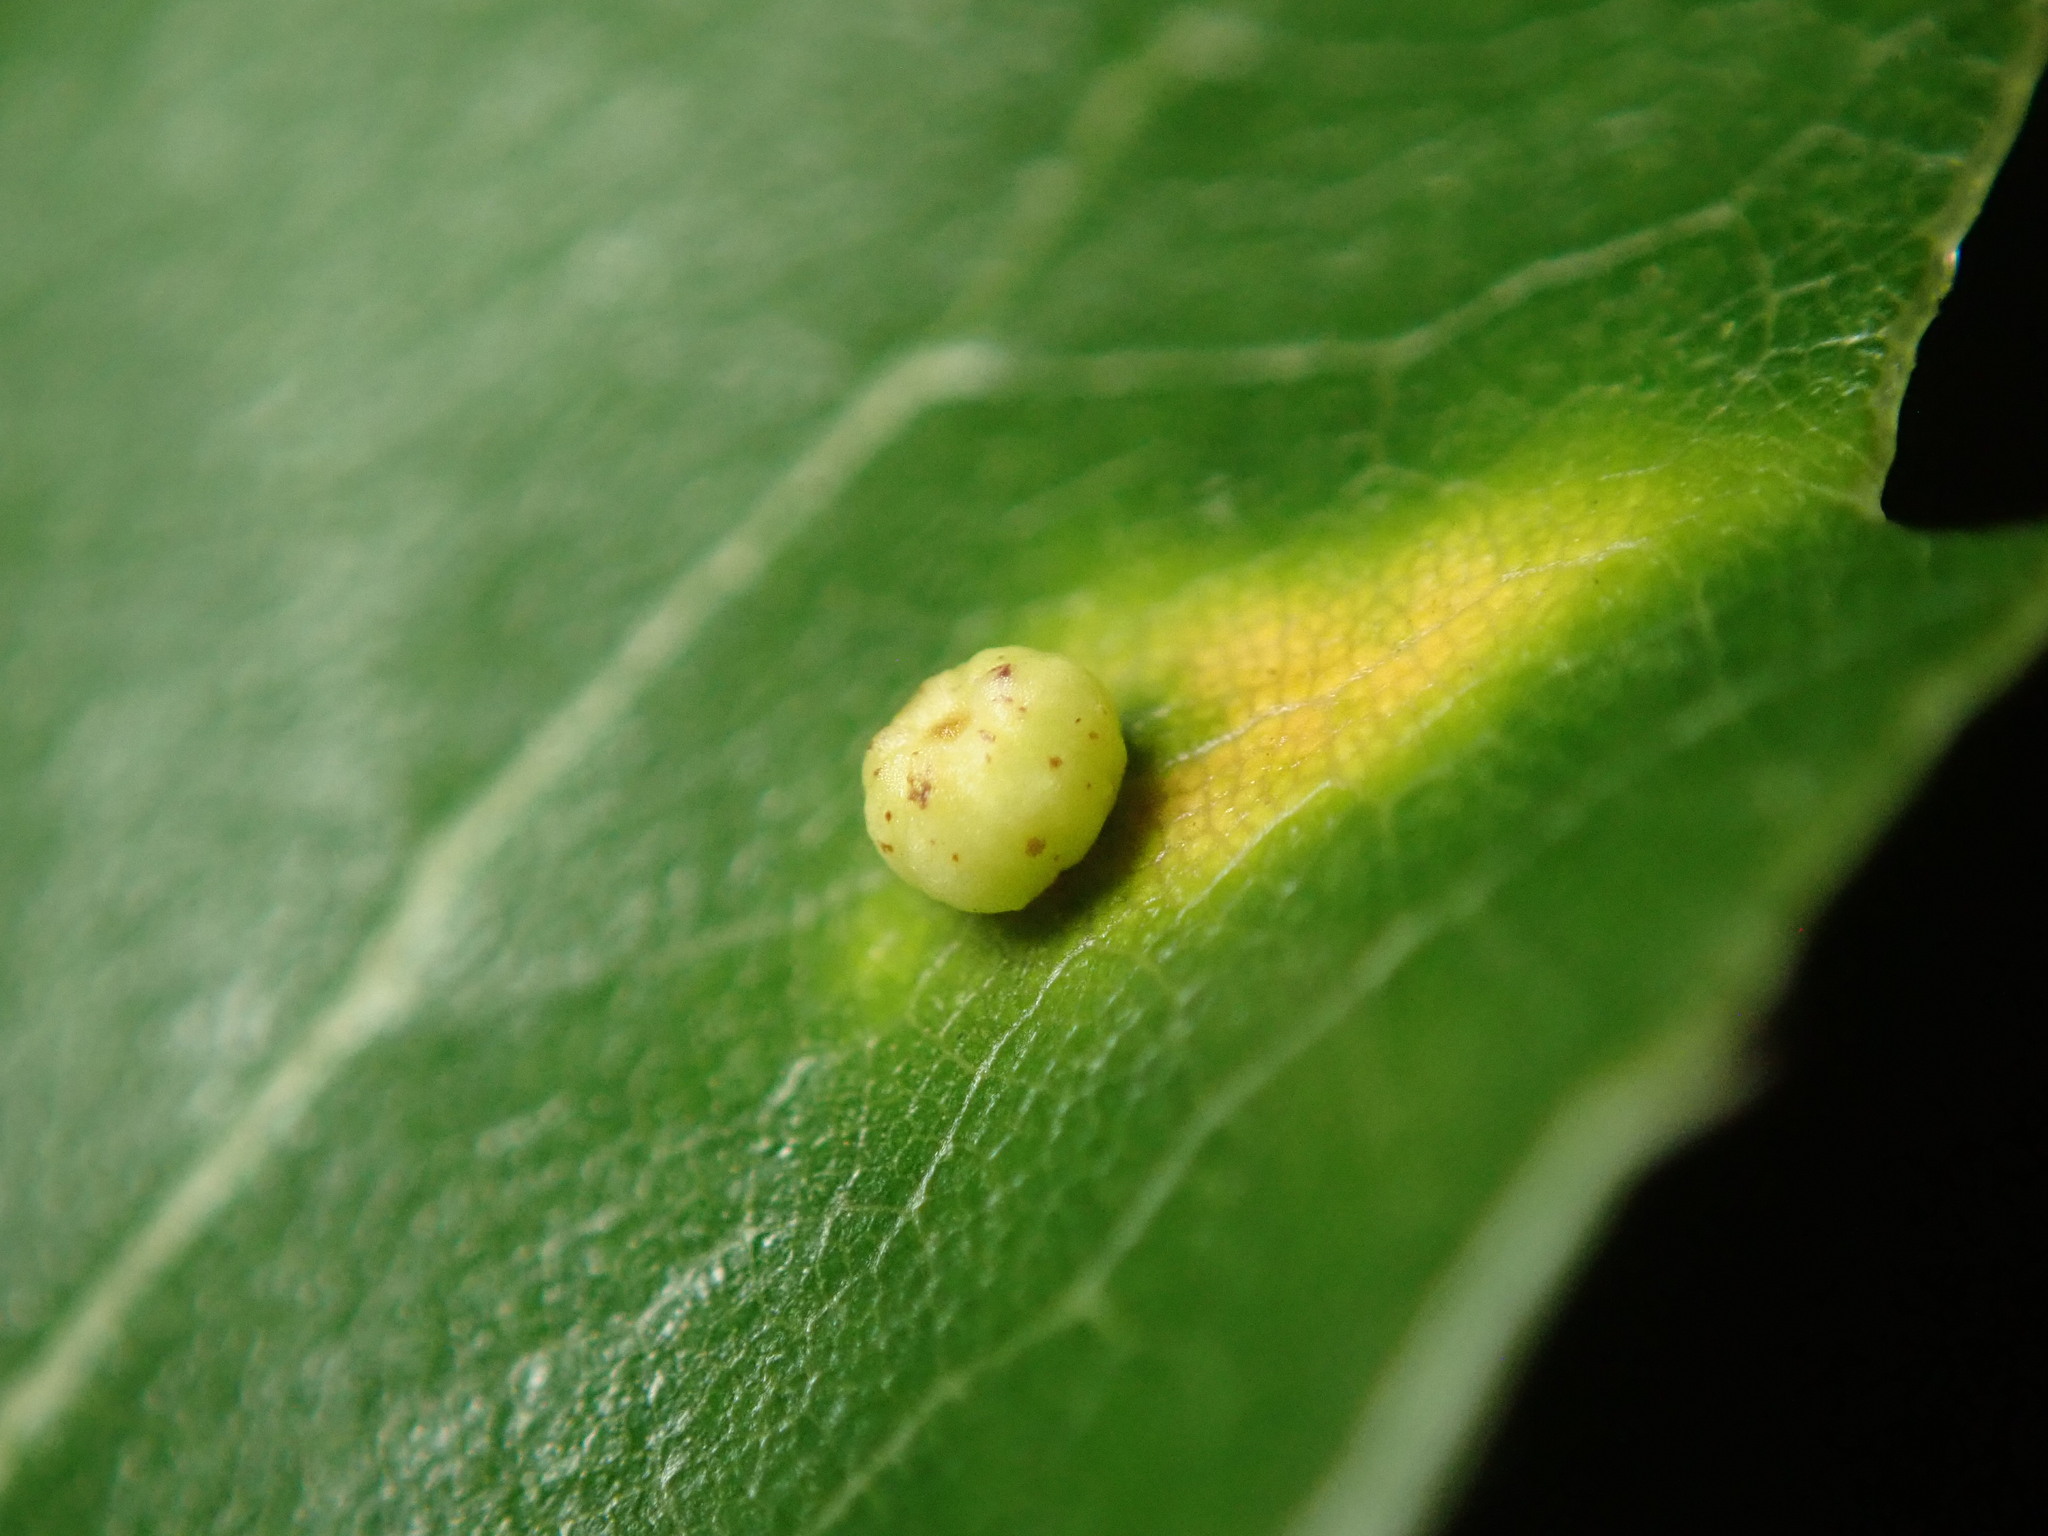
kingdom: Animalia
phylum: Arthropoda
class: Insecta
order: Hymenoptera
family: Cynipidae
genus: Dryocosmus
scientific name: Dryocosmus
